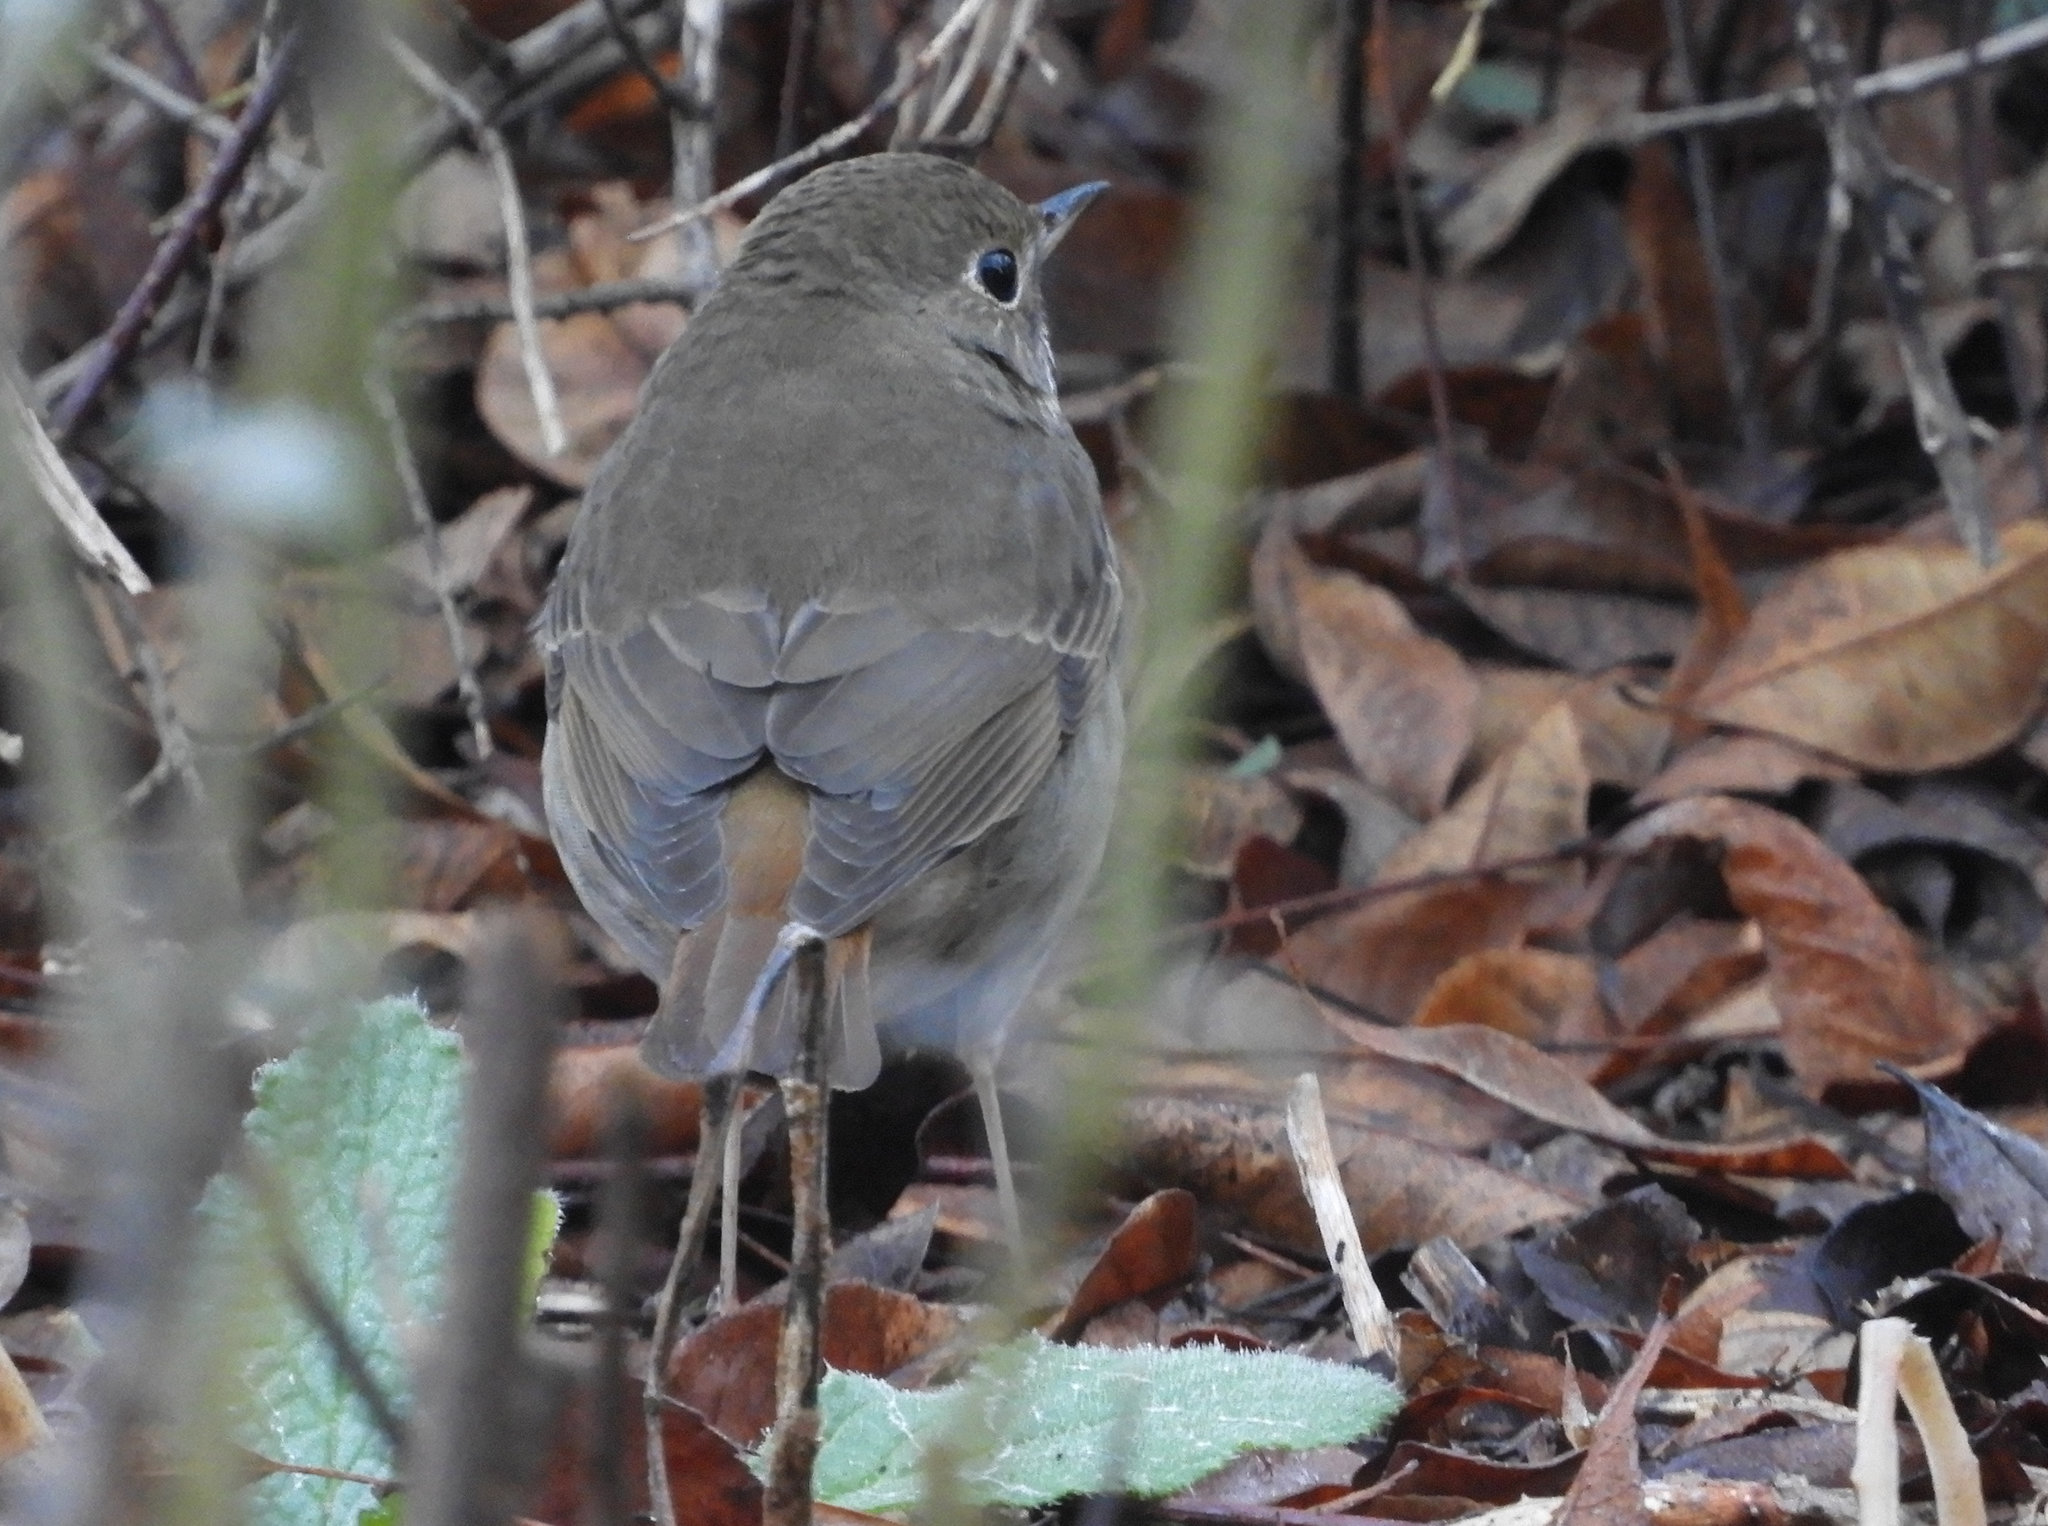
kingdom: Animalia
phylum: Chordata
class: Aves
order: Passeriformes
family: Turdidae
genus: Catharus
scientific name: Catharus guttatus
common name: Hermit thrush
